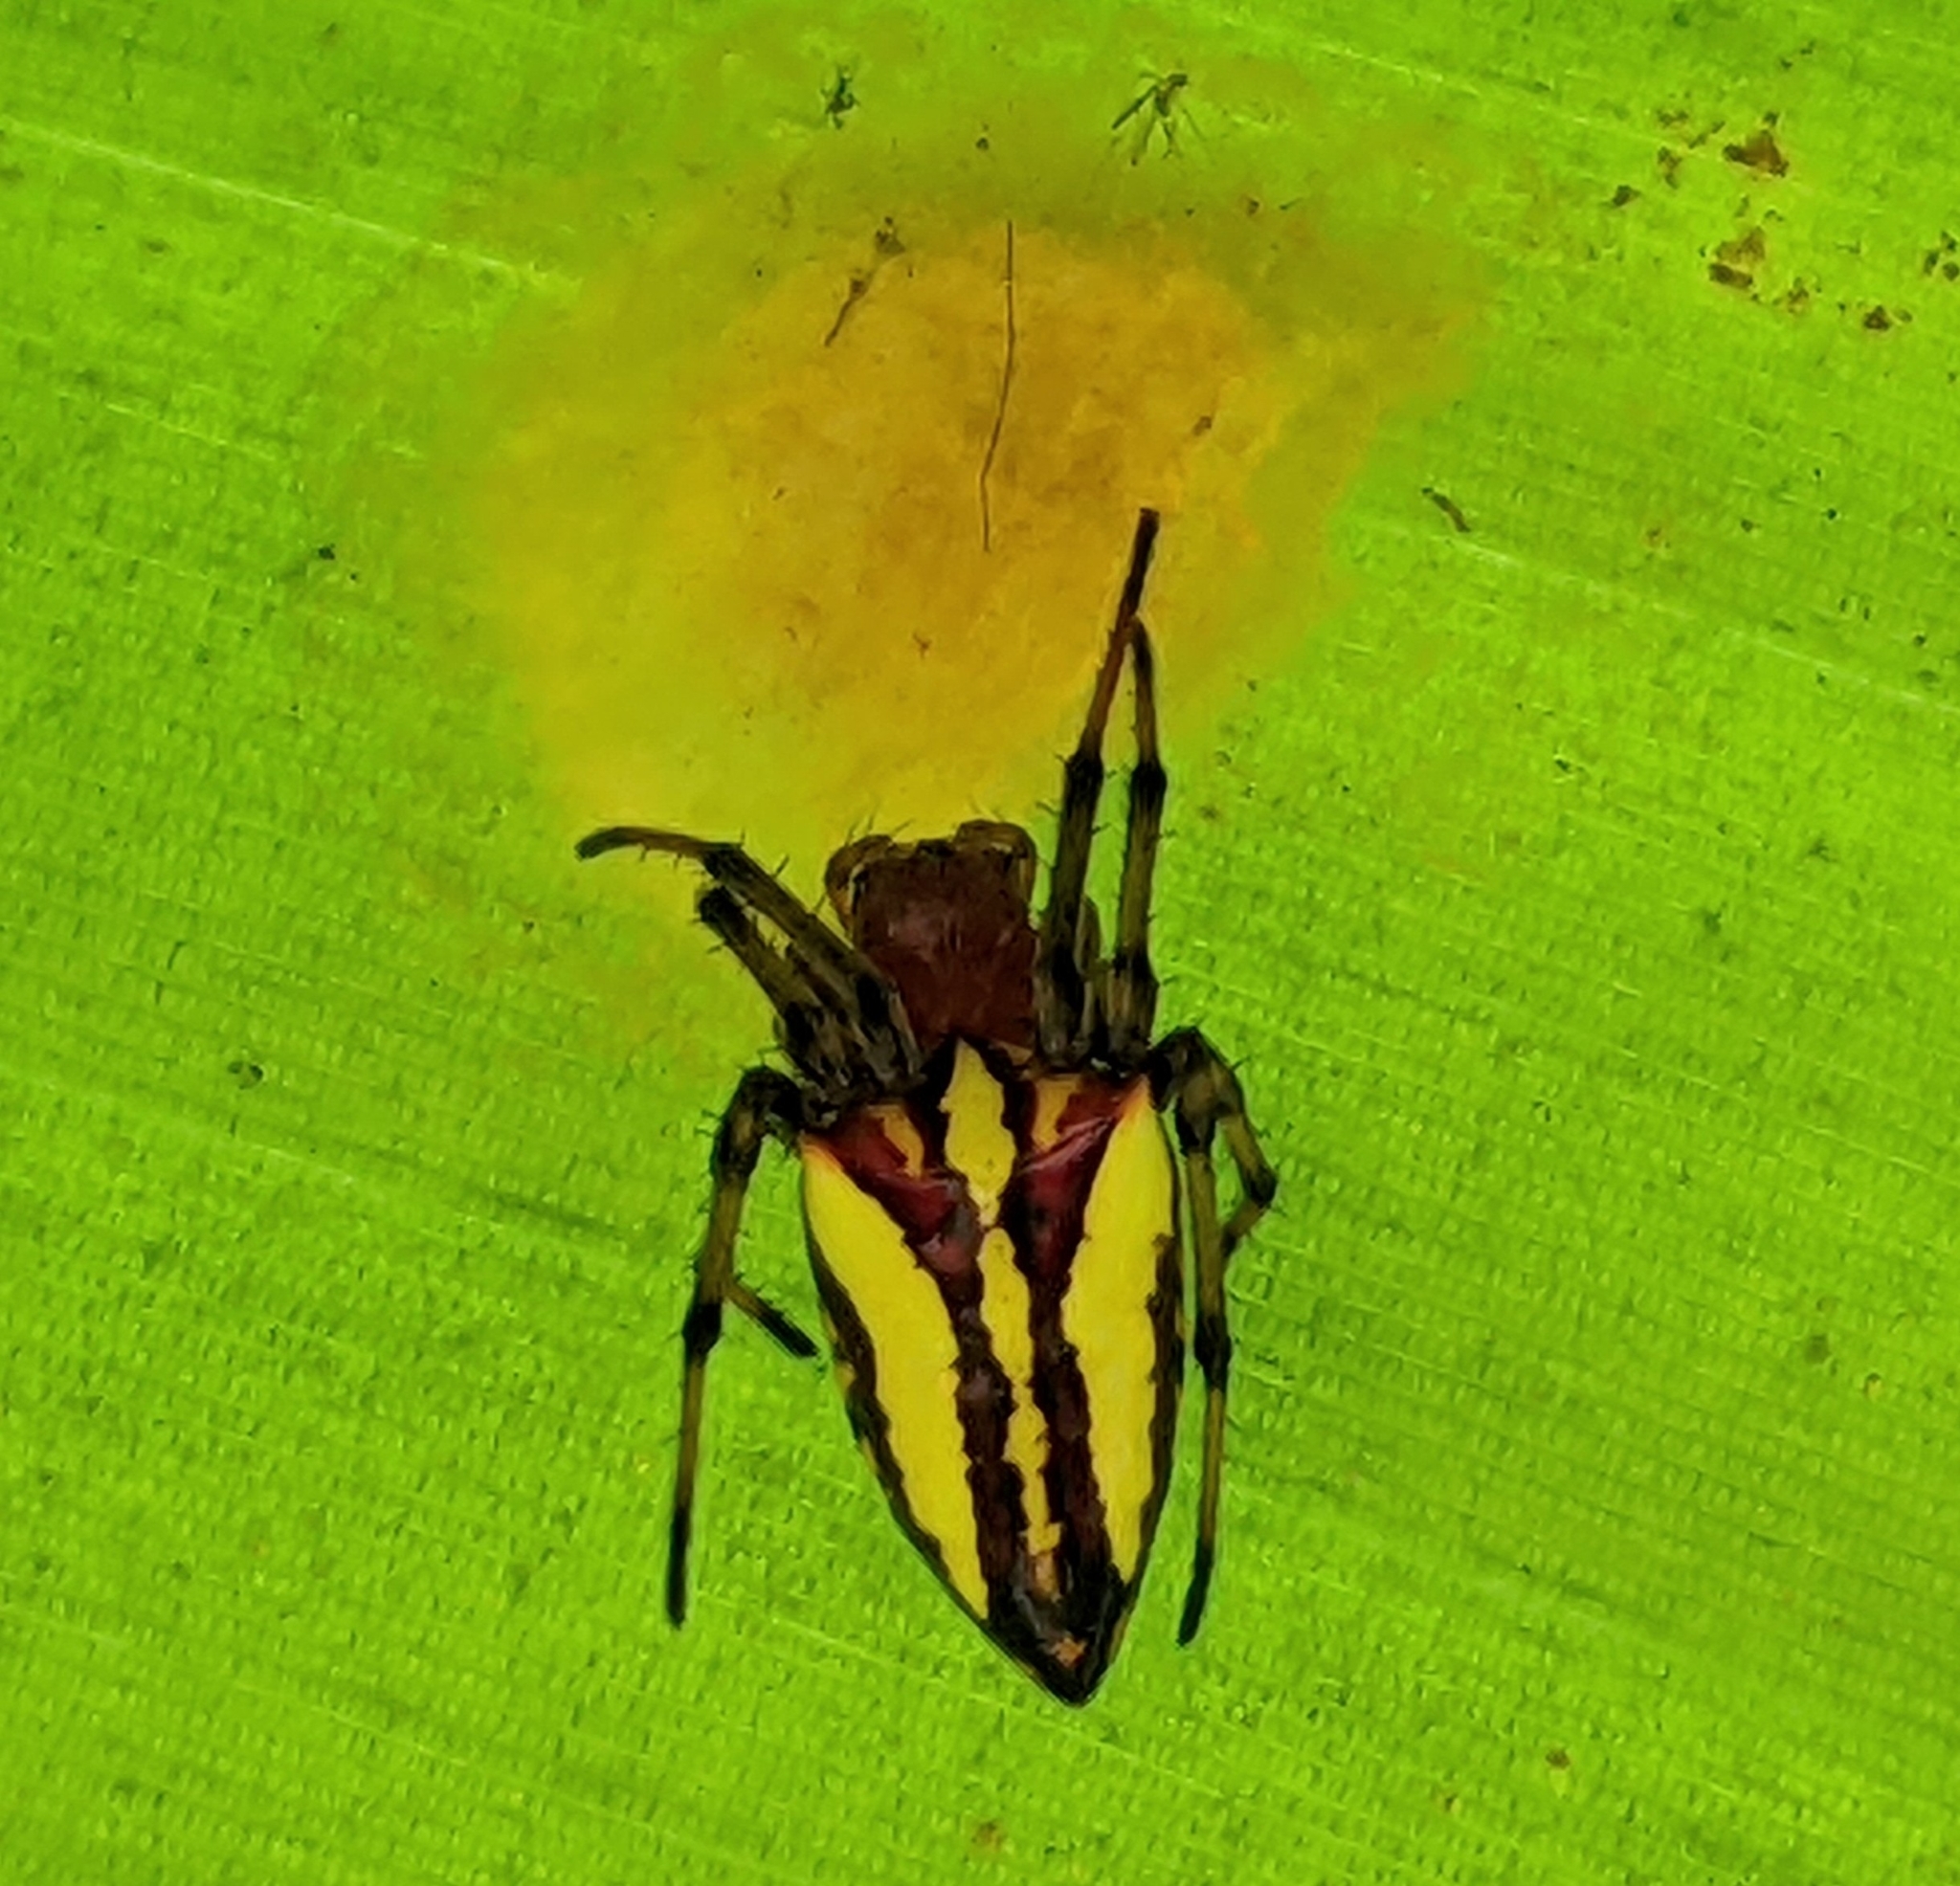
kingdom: Animalia
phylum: Arthropoda
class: Arachnida
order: Araneae
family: Araneidae
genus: Alpaida
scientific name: Alpaida bicornuta
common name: Orb weavers
